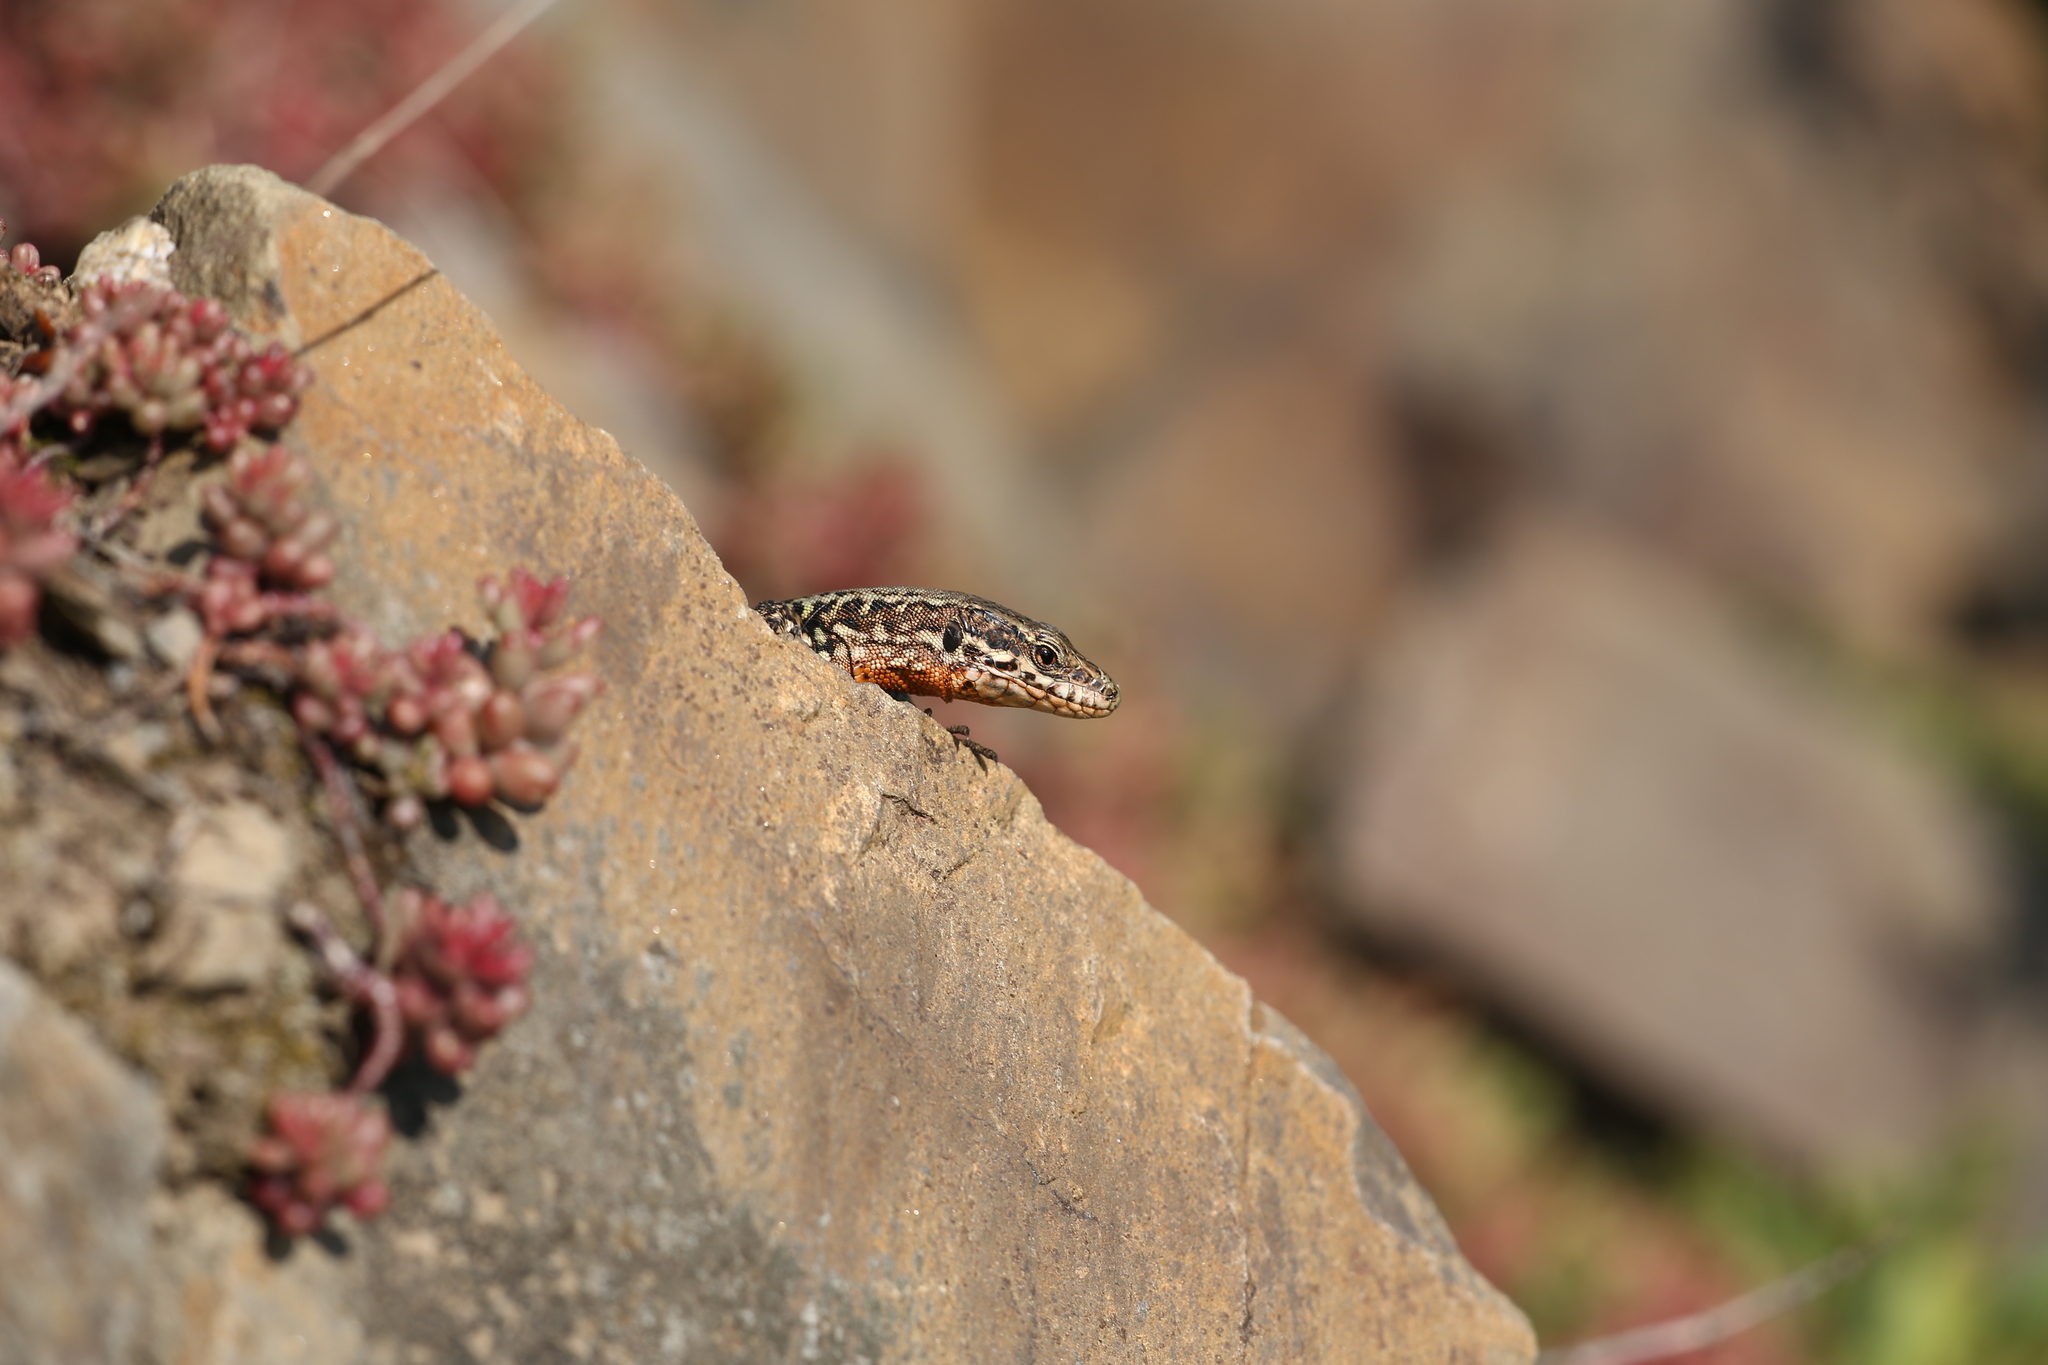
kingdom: Animalia
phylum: Chordata
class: Squamata
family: Lacertidae
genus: Podarcis
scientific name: Podarcis muralis
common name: Common wall lizard
